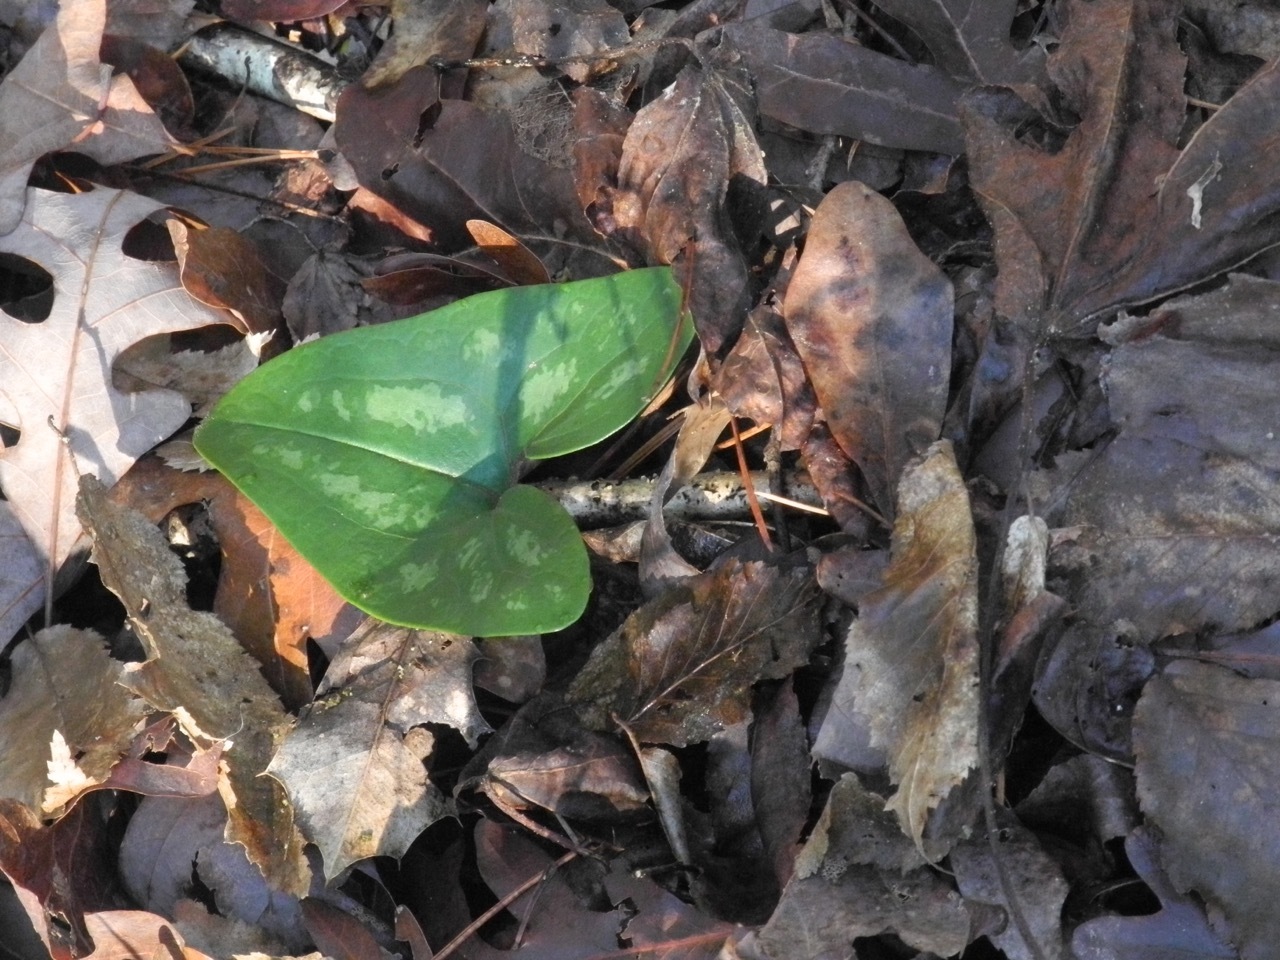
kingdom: Plantae
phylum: Tracheophyta
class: Magnoliopsida
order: Piperales
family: Aristolochiaceae
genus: Hexastylis
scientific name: Hexastylis arifolia
